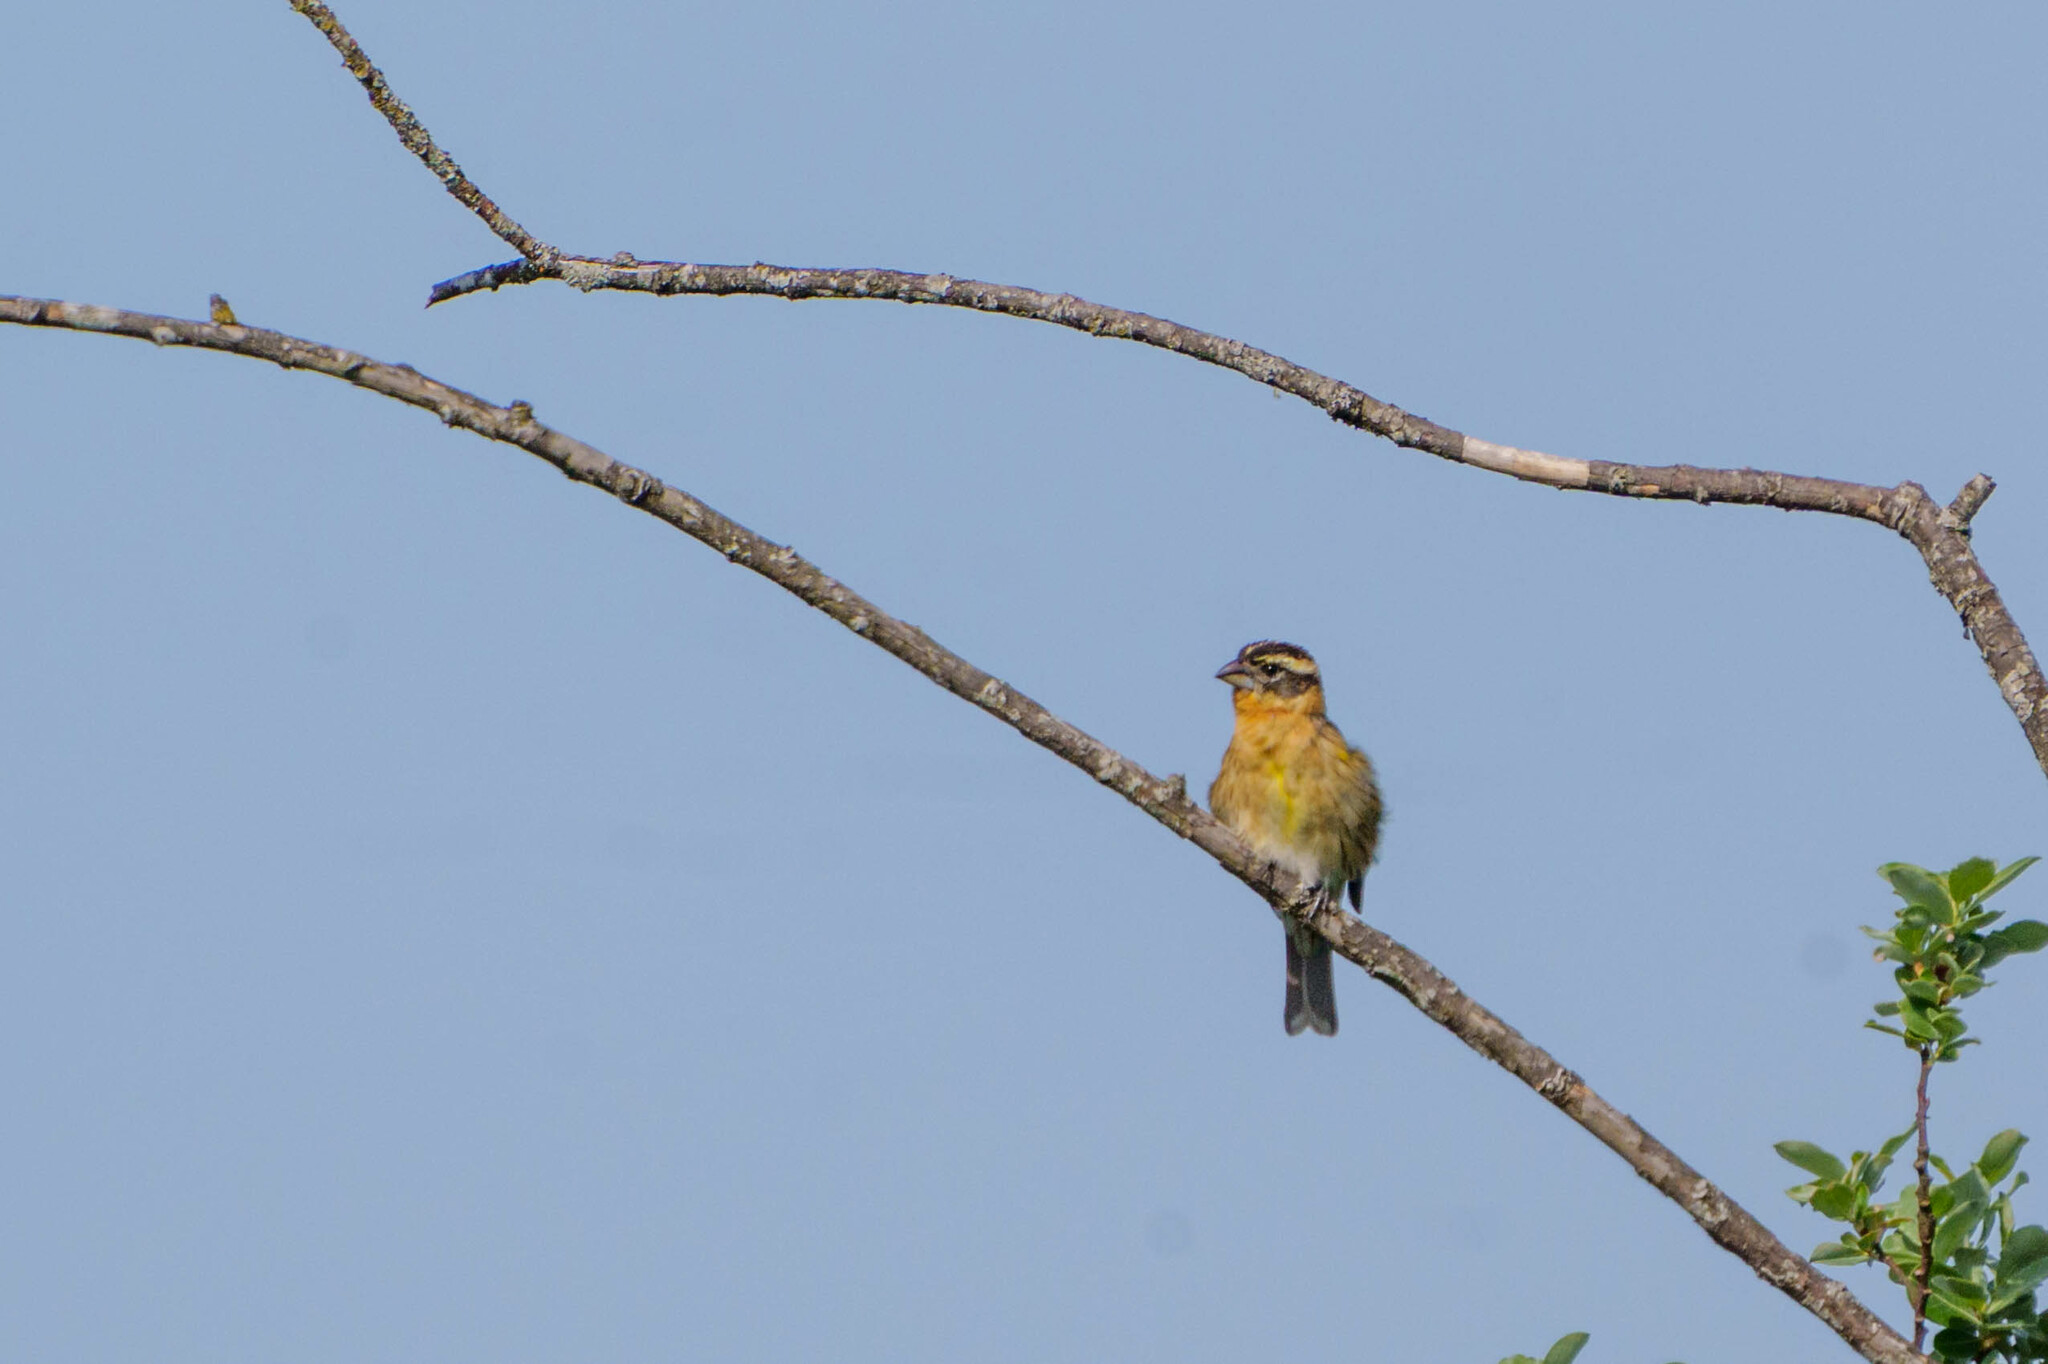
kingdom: Animalia
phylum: Chordata
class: Aves
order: Passeriformes
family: Cardinalidae
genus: Pheucticus
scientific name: Pheucticus melanocephalus
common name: Black-headed grosbeak
